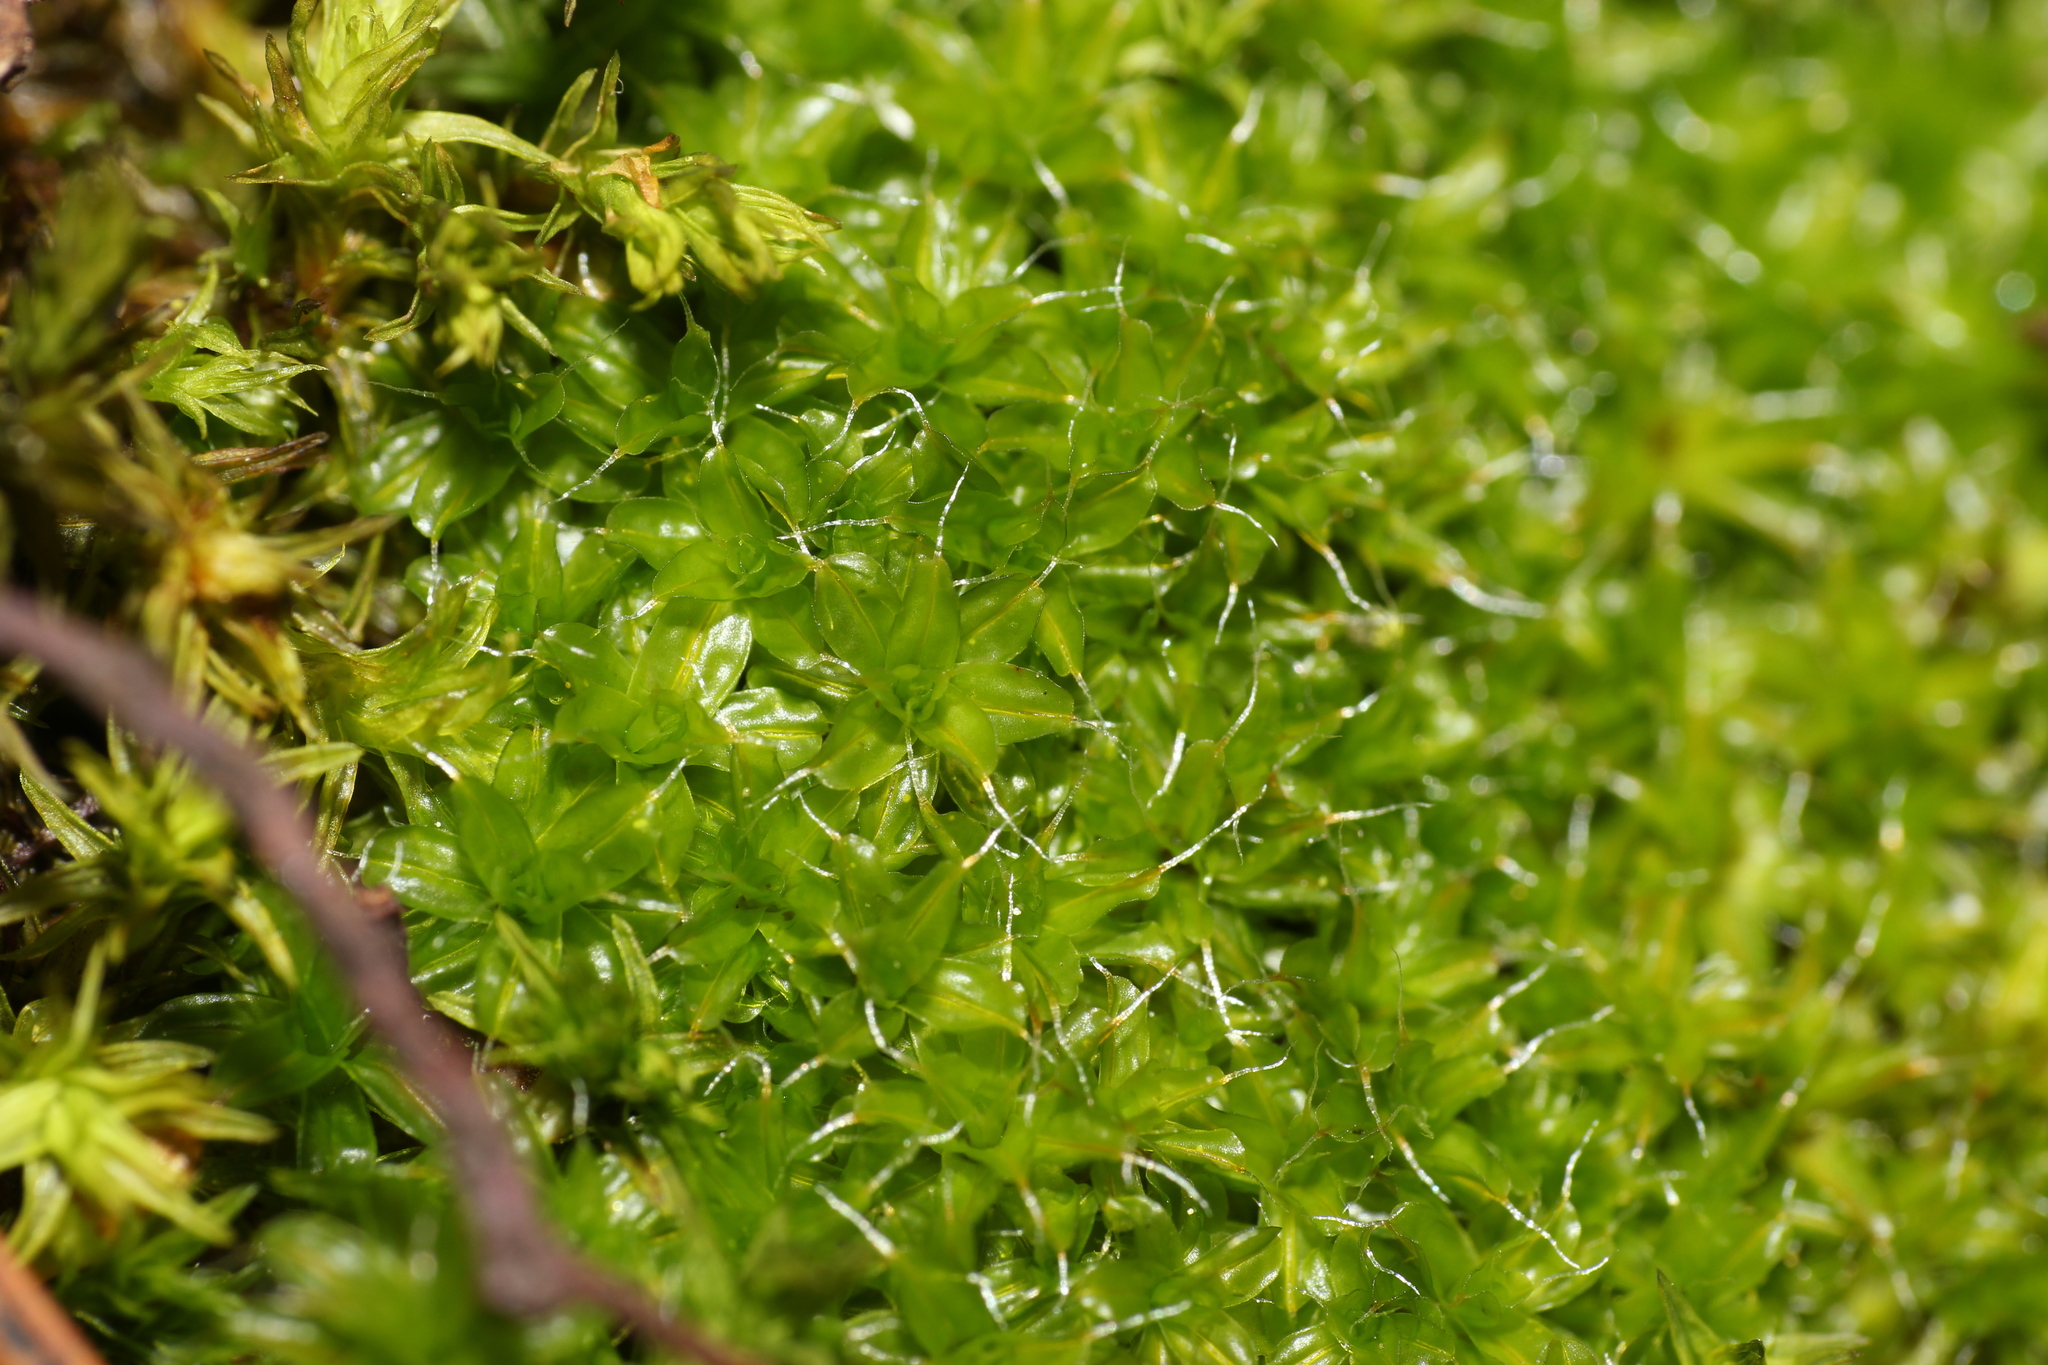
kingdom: Plantae
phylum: Bryophyta
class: Bryopsida
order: Pottiales
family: Pottiaceae
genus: Syntrichia
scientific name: Syntrichia ruralis
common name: Sidewalk screw moss
